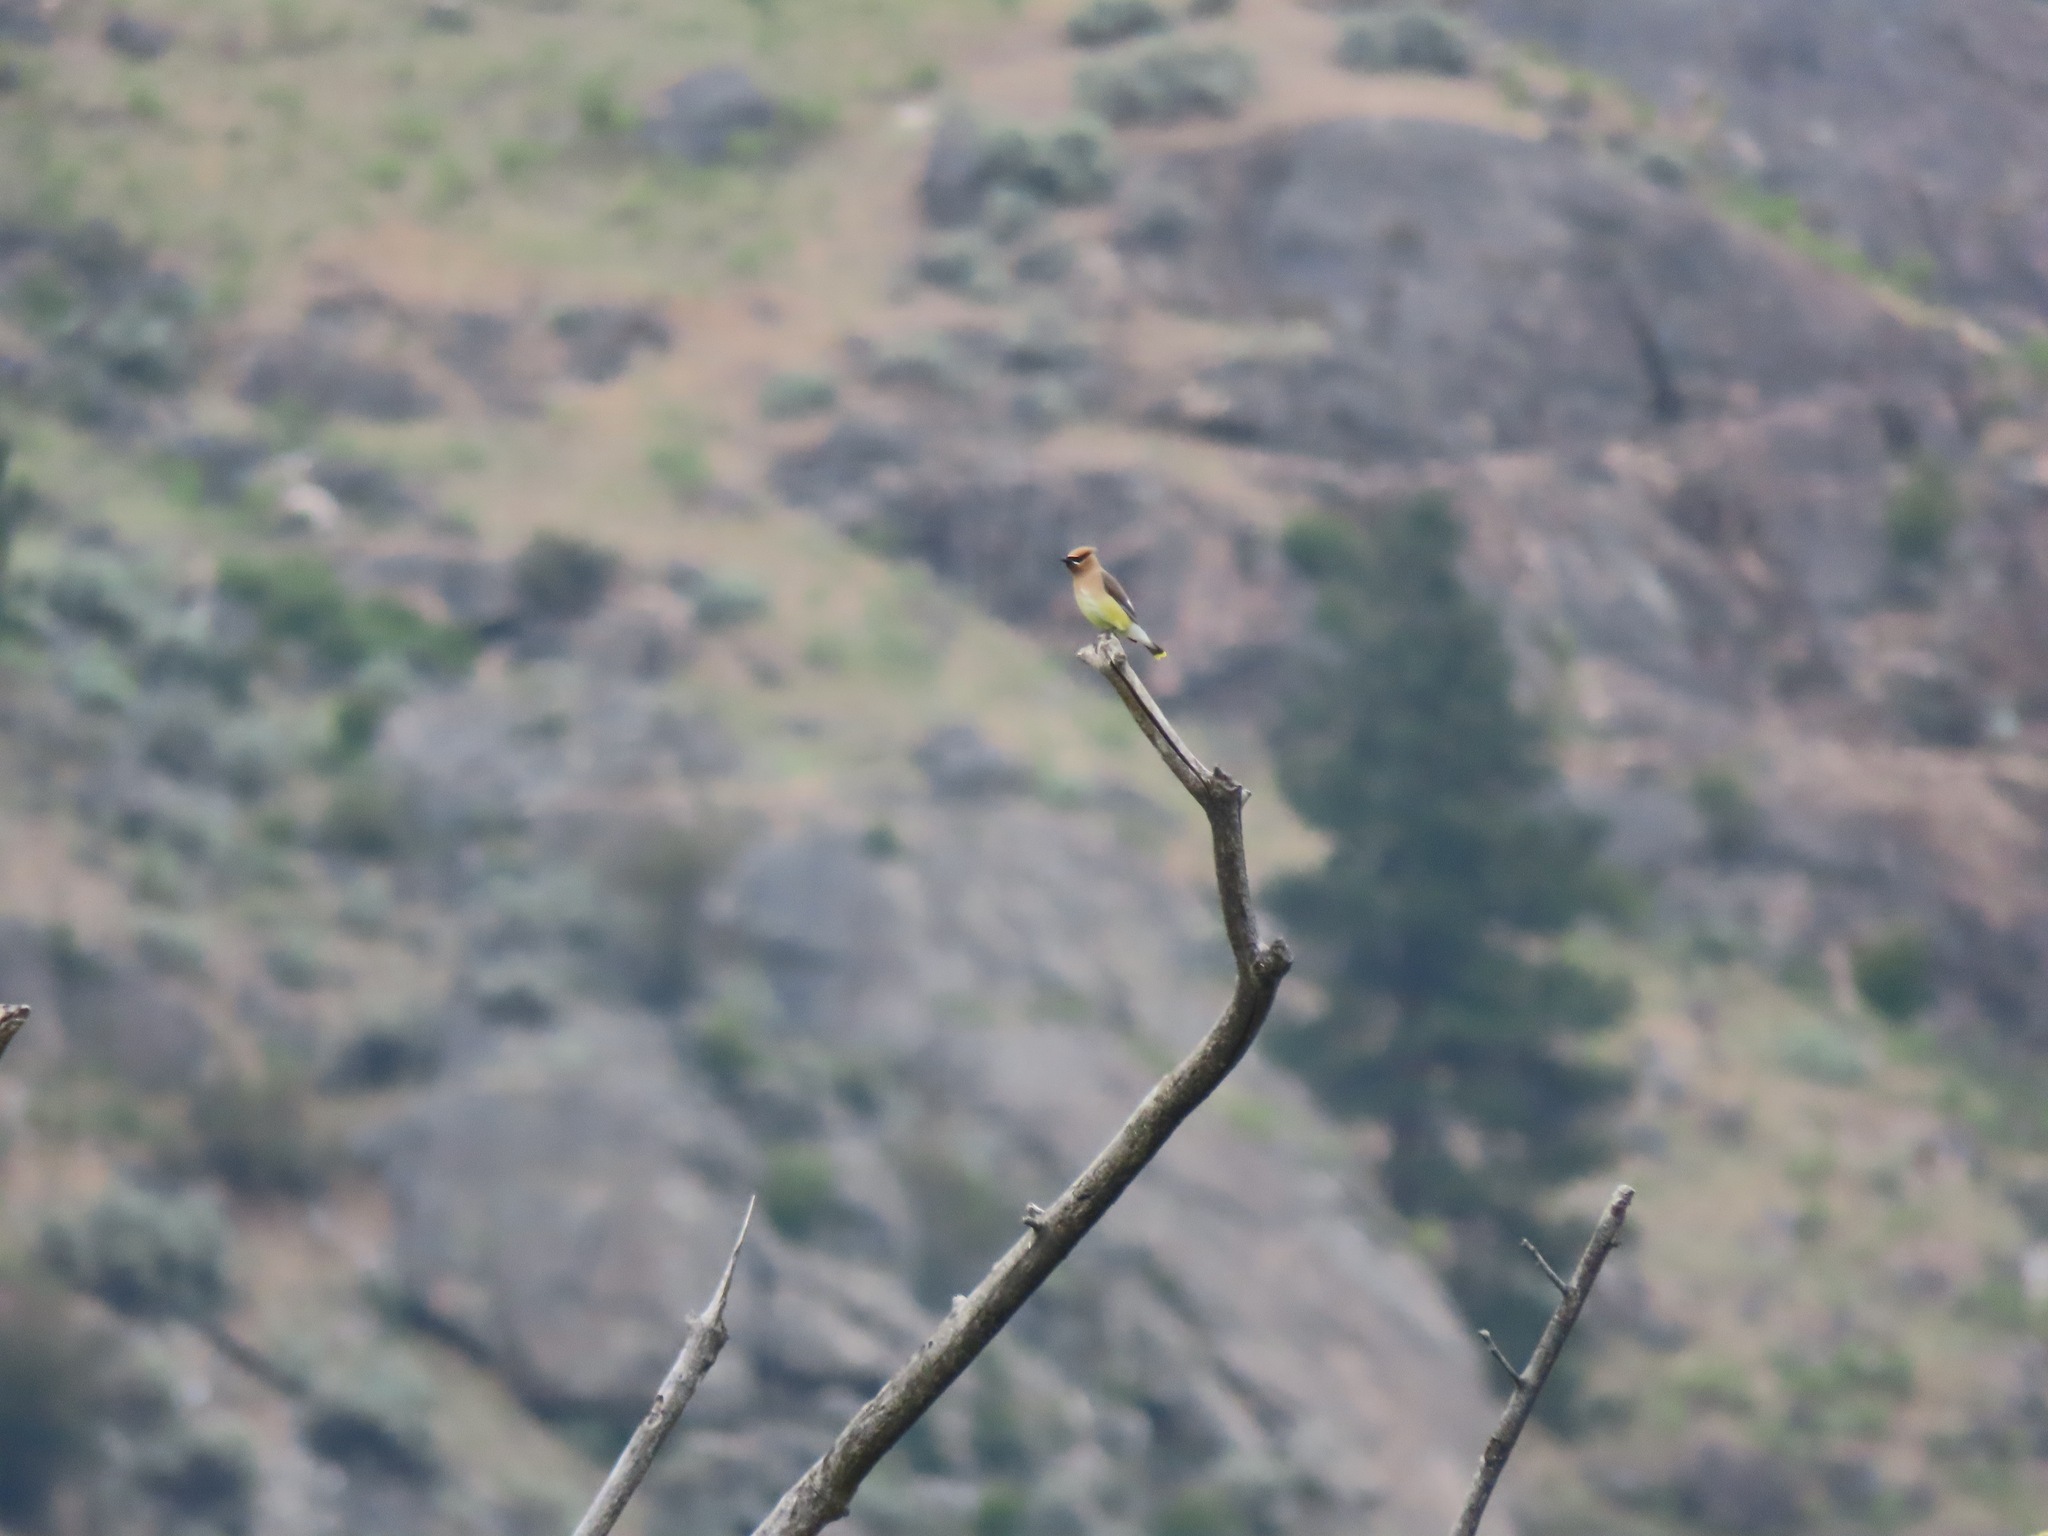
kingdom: Animalia
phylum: Chordata
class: Aves
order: Passeriformes
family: Bombycillidae
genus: Bombycilla
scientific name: Bombycilla cedrorum
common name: Cedar waxwing
